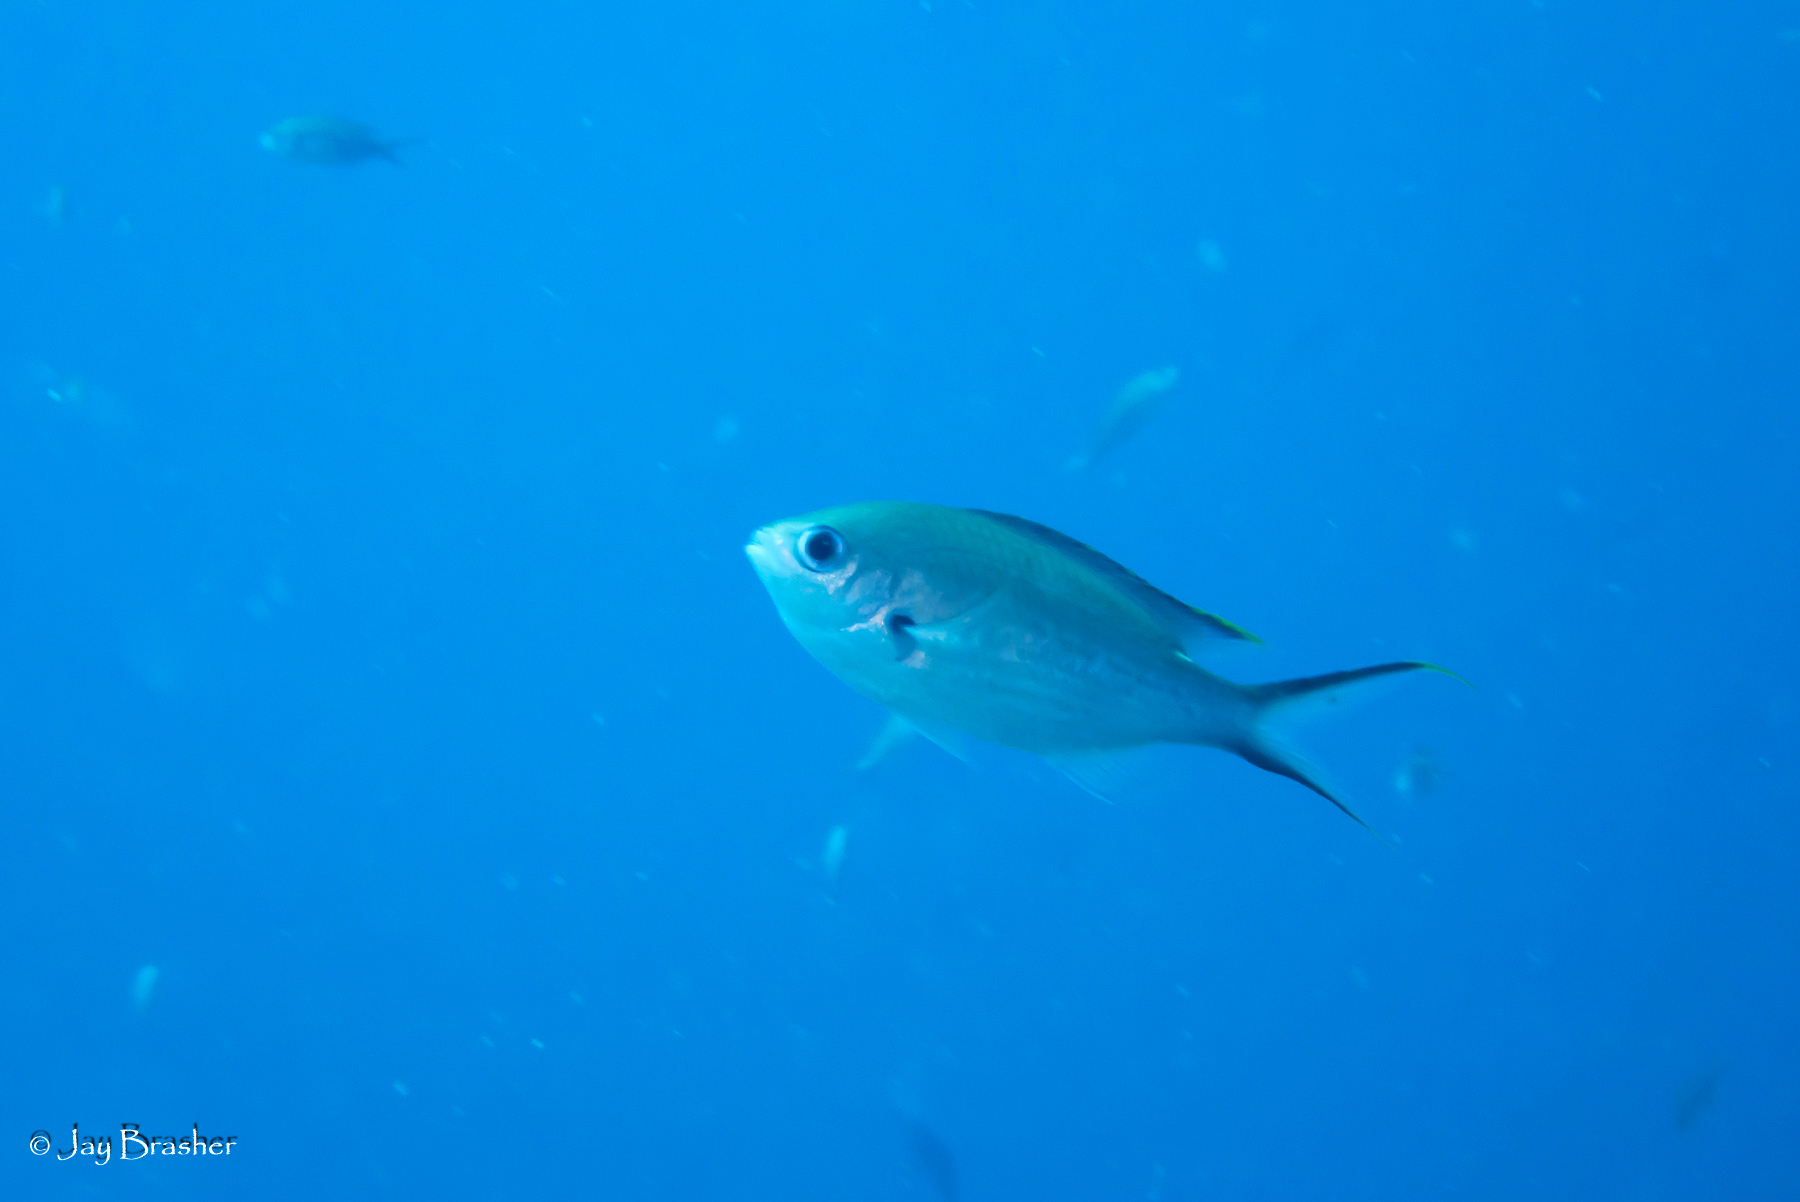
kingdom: Animalia
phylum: Chordata
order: Perciformes
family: Pomacentridae
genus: Chromis
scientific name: Chromis multilineata
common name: Brown chromis
